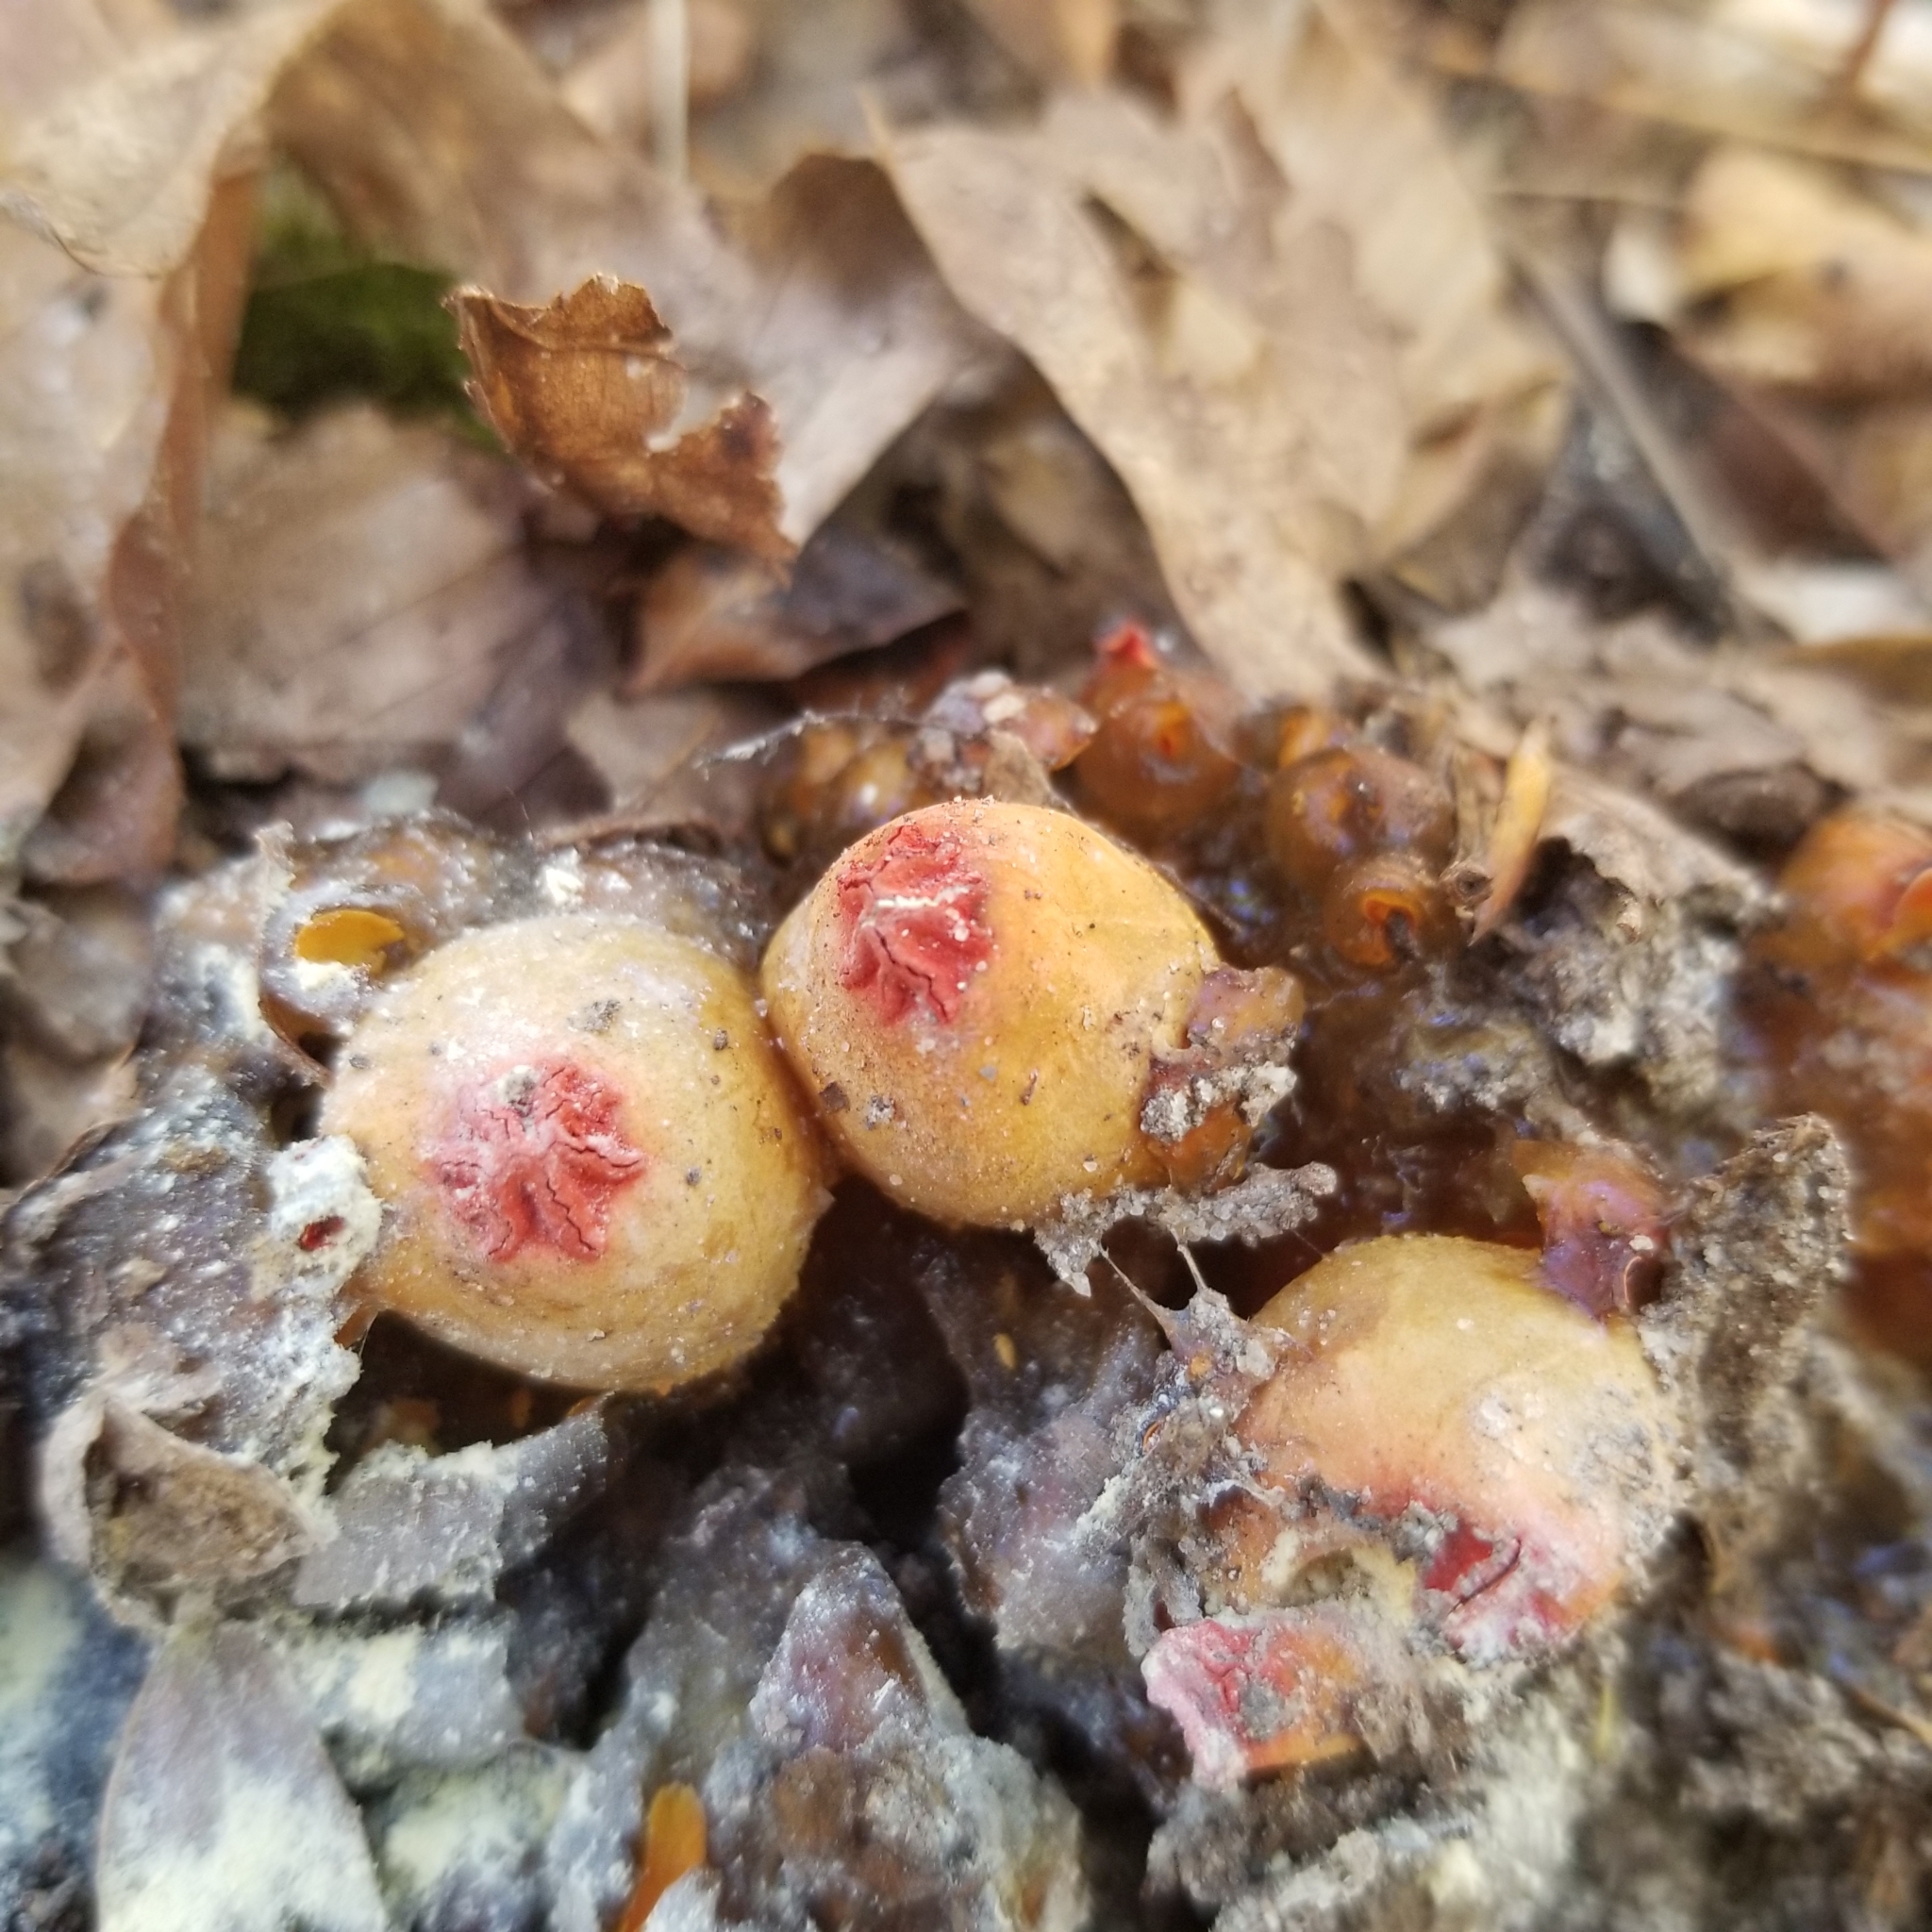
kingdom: Fungi
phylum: Basidiomycota
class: Agaricomycetes
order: Boletales
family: Calostomataceae
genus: Calostoma
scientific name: Calostoma cinnabarinum
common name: Stalked puffball-in-aspic
